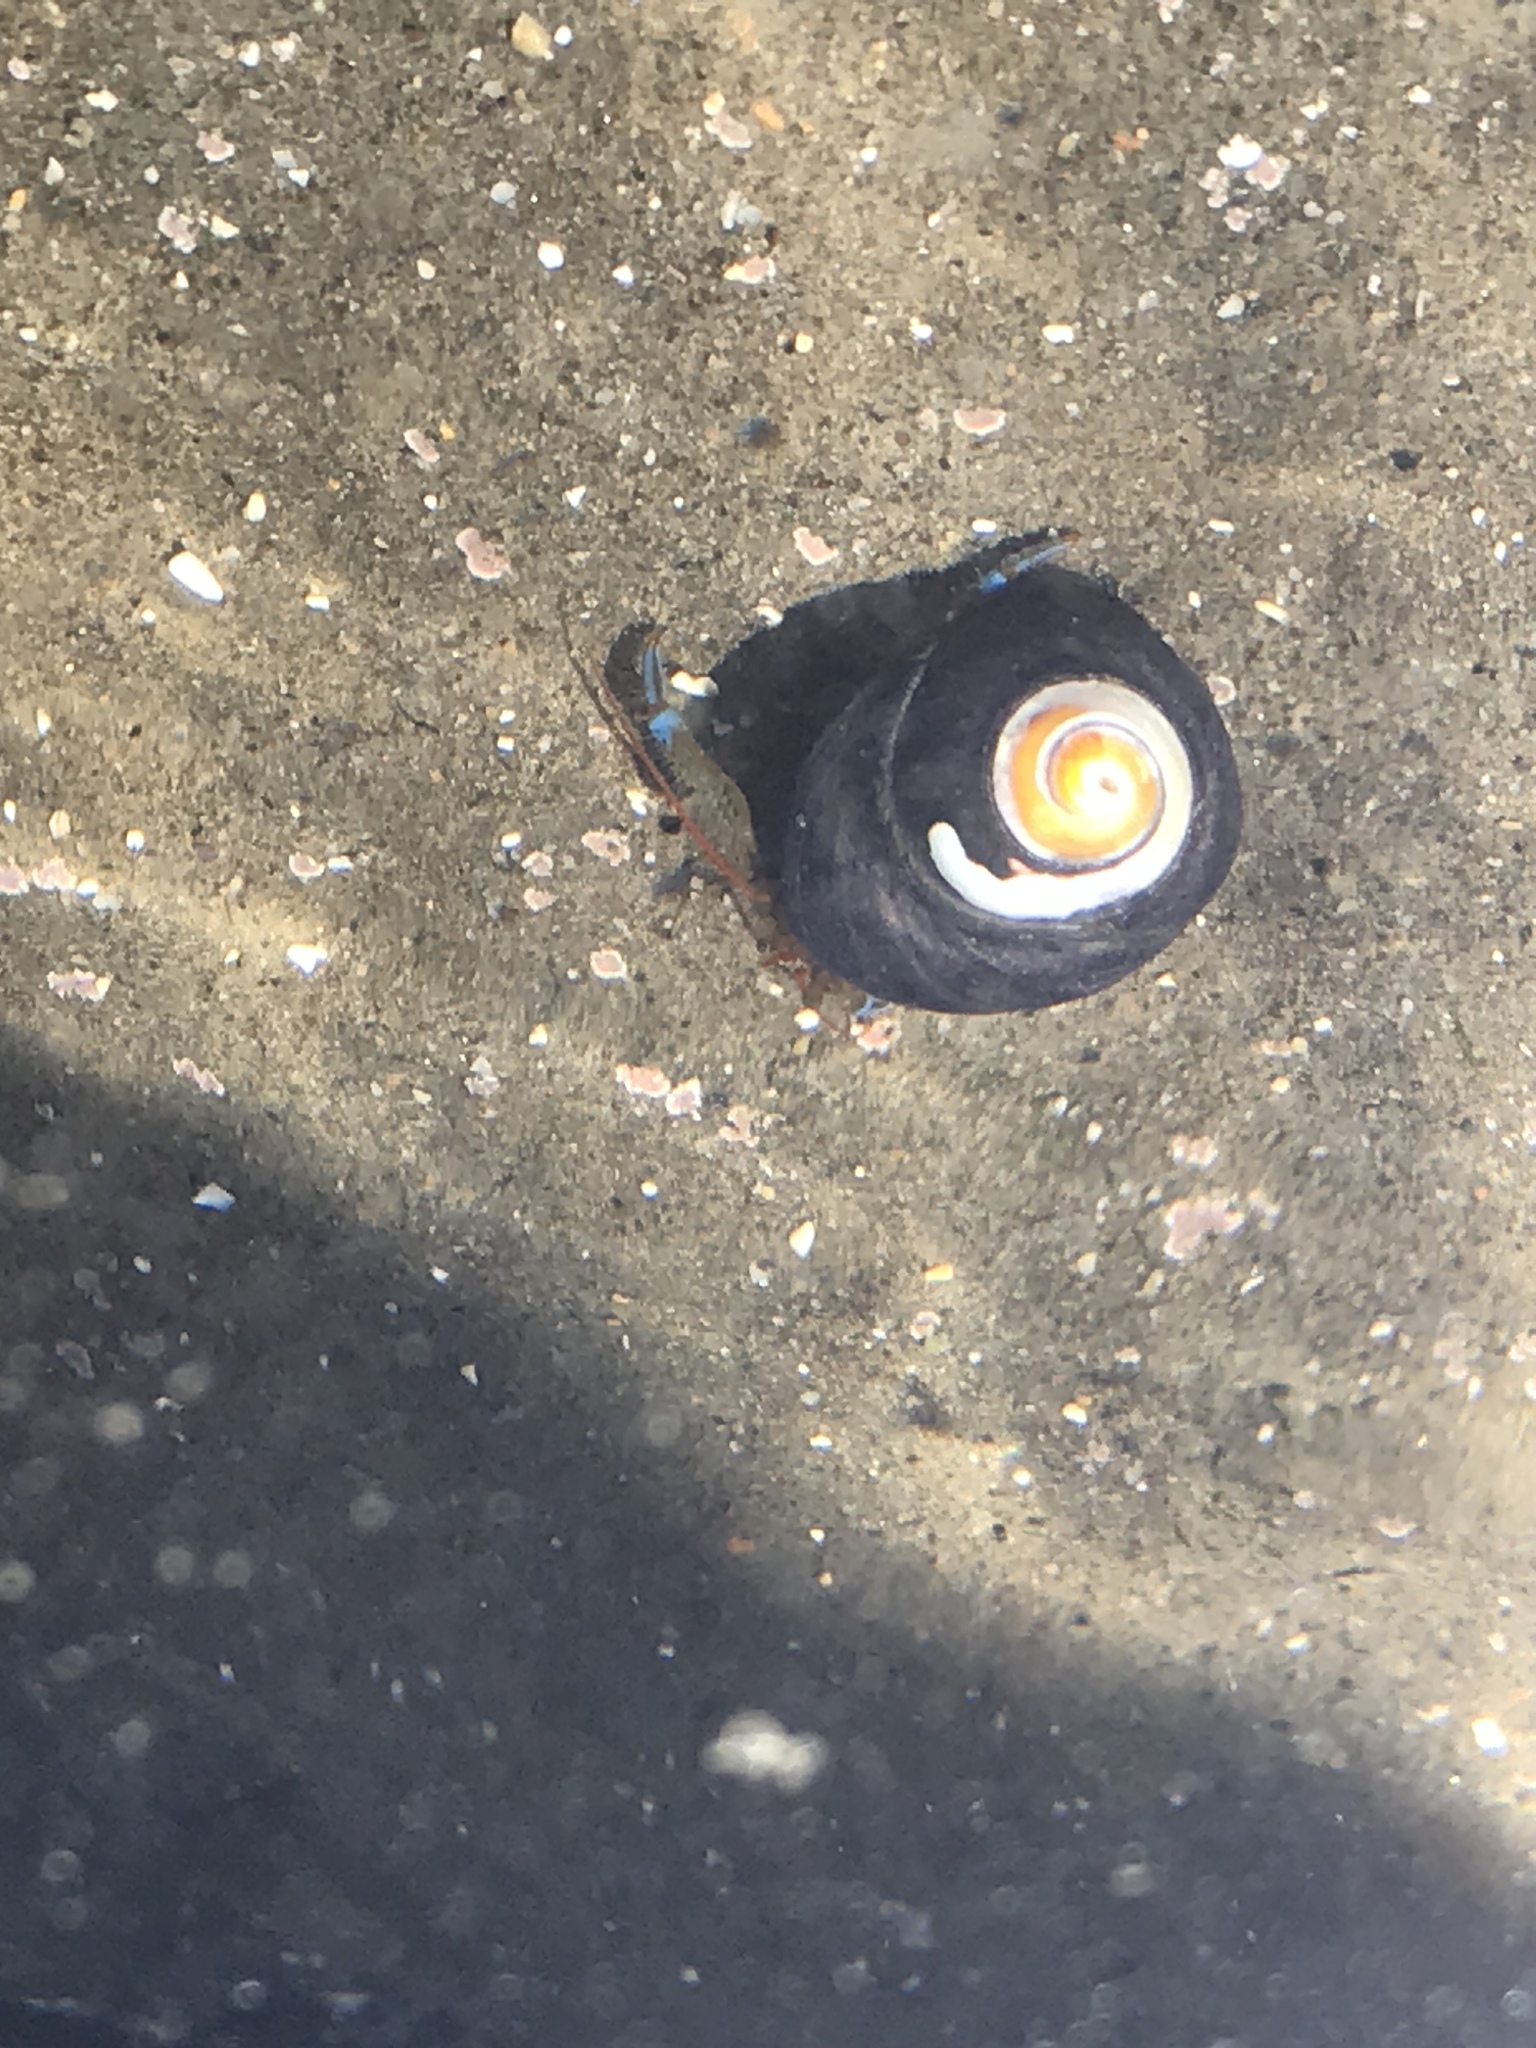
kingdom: Animalia
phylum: Arthropoda
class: Malacostraca
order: Decapoda
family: Paguridae
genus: Pagurus
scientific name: Pagurus samuelis
